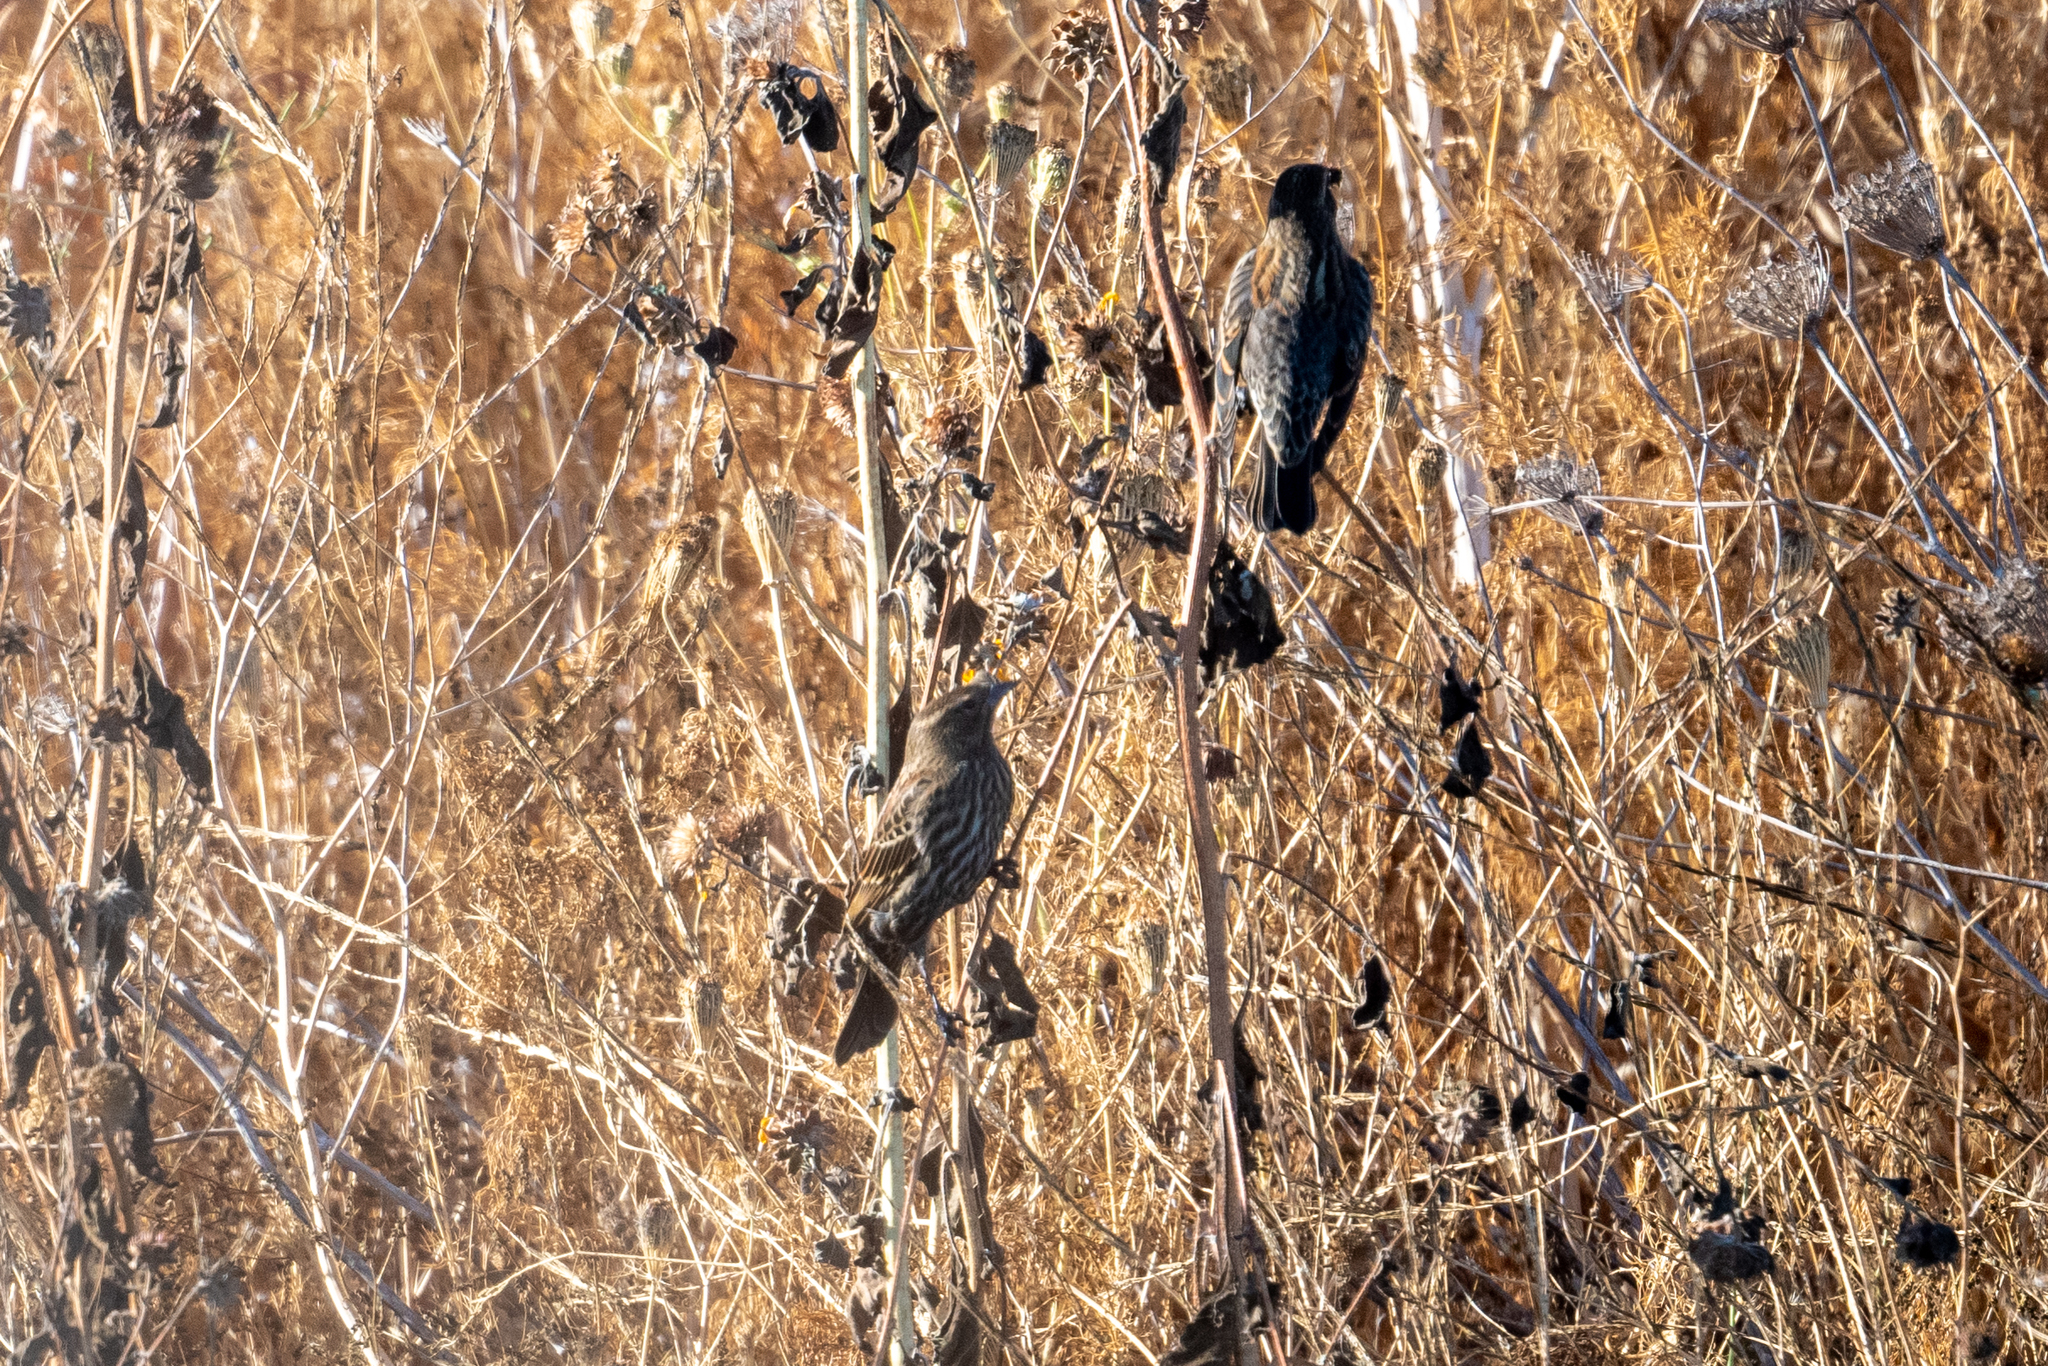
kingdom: Animalia
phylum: Chordata
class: Aves
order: Passeriformes
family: Icteridae
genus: Agelaius
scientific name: Agelaius phoeniceus
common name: Red-winged blackbird
